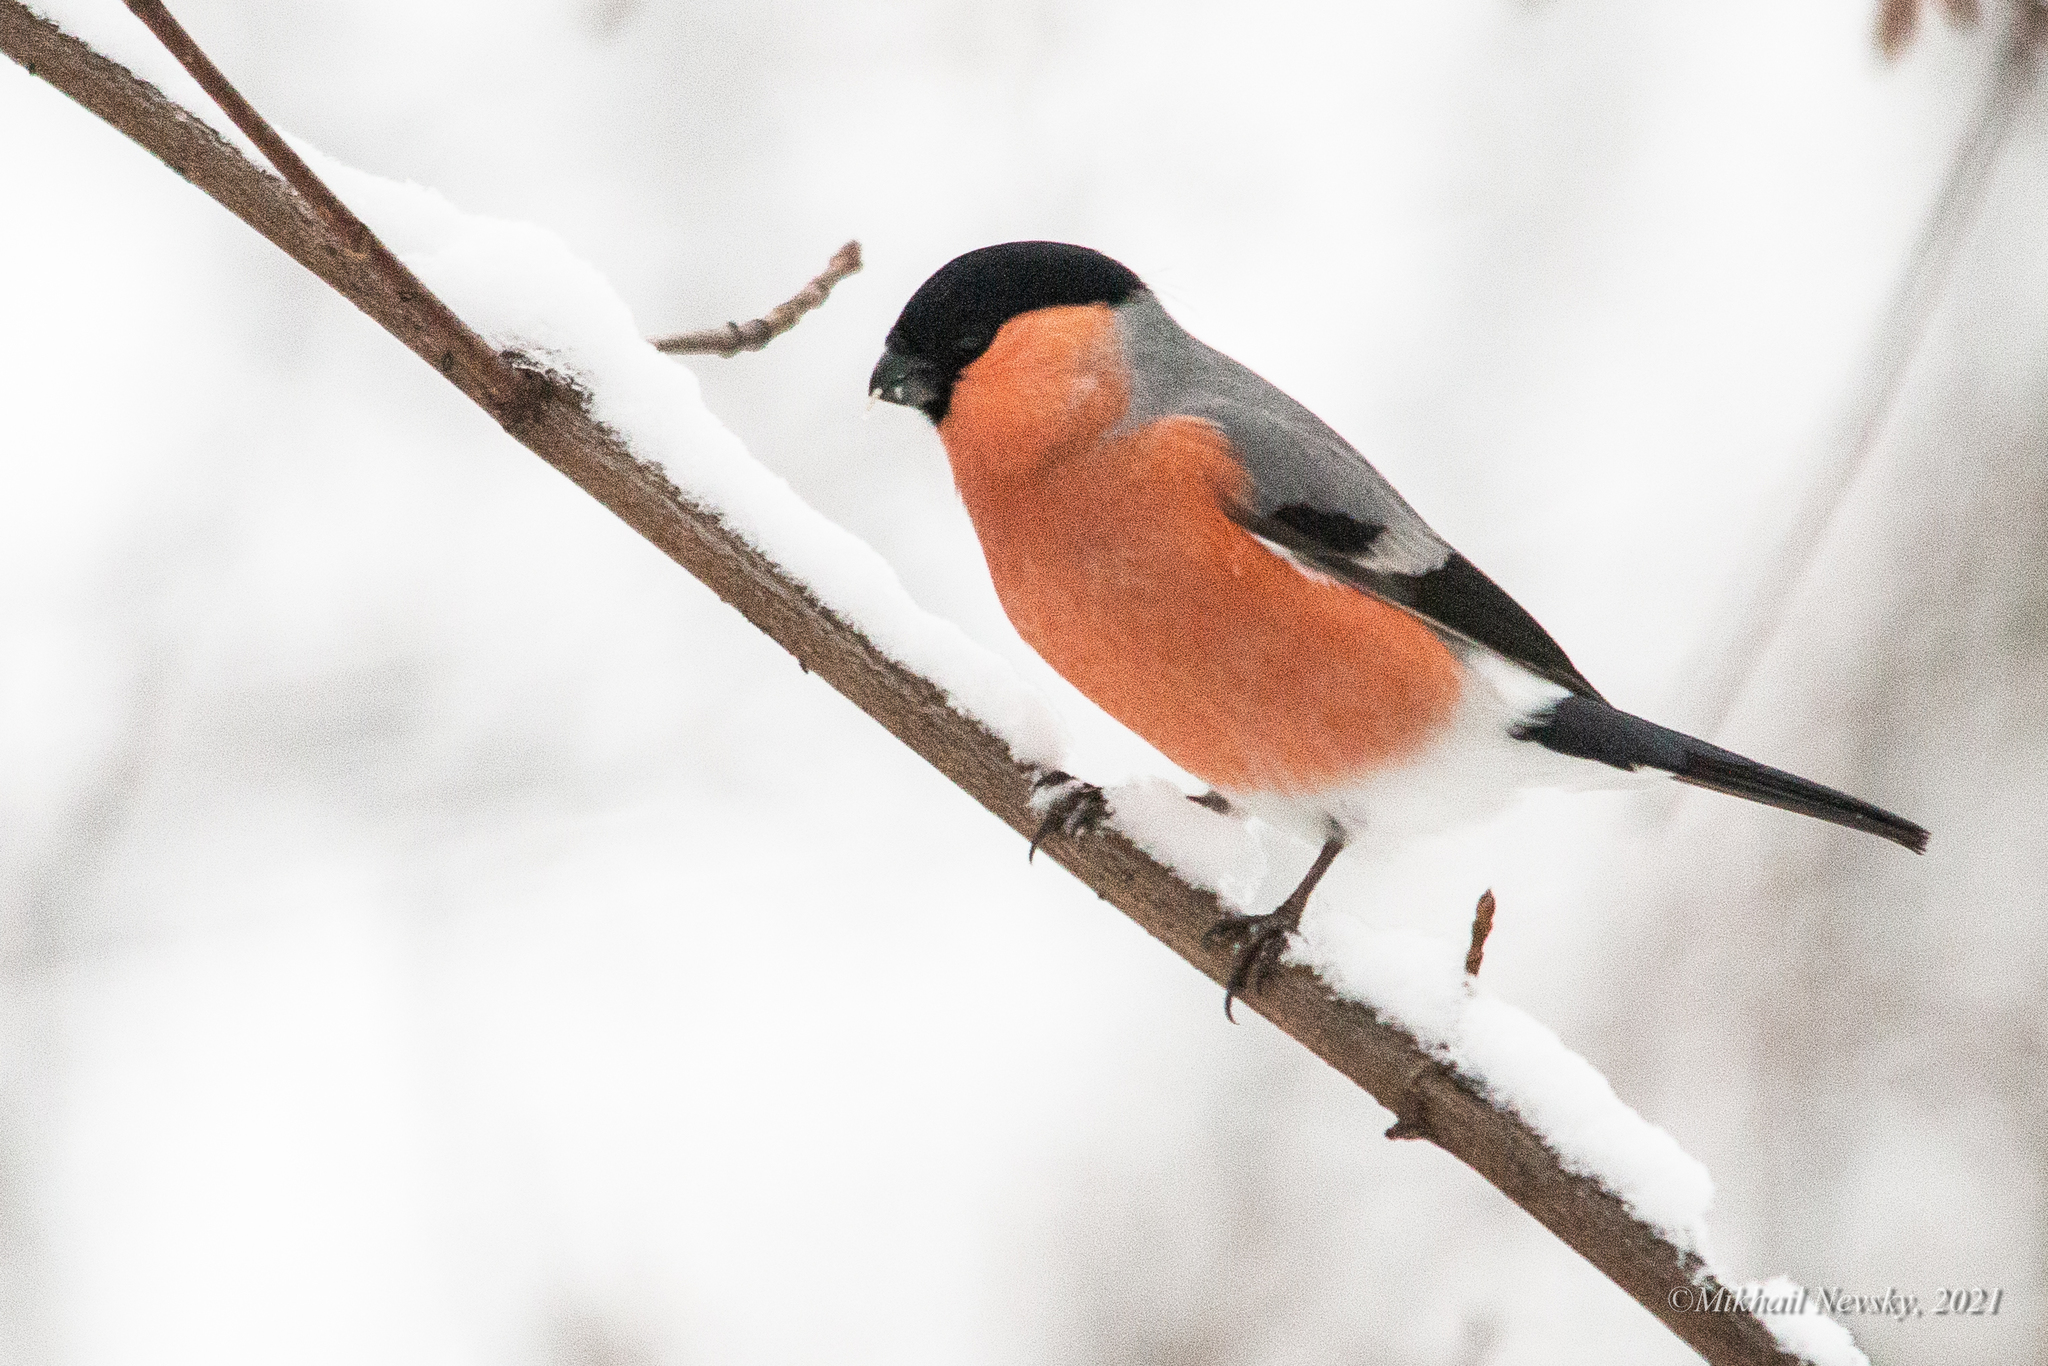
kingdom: Animalia
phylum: Chordata
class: Aves
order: Passeriformes
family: Fringillidae
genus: Pyrrhula
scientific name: Pyrrhula pyrrhula
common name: Eurasian bullfinch
